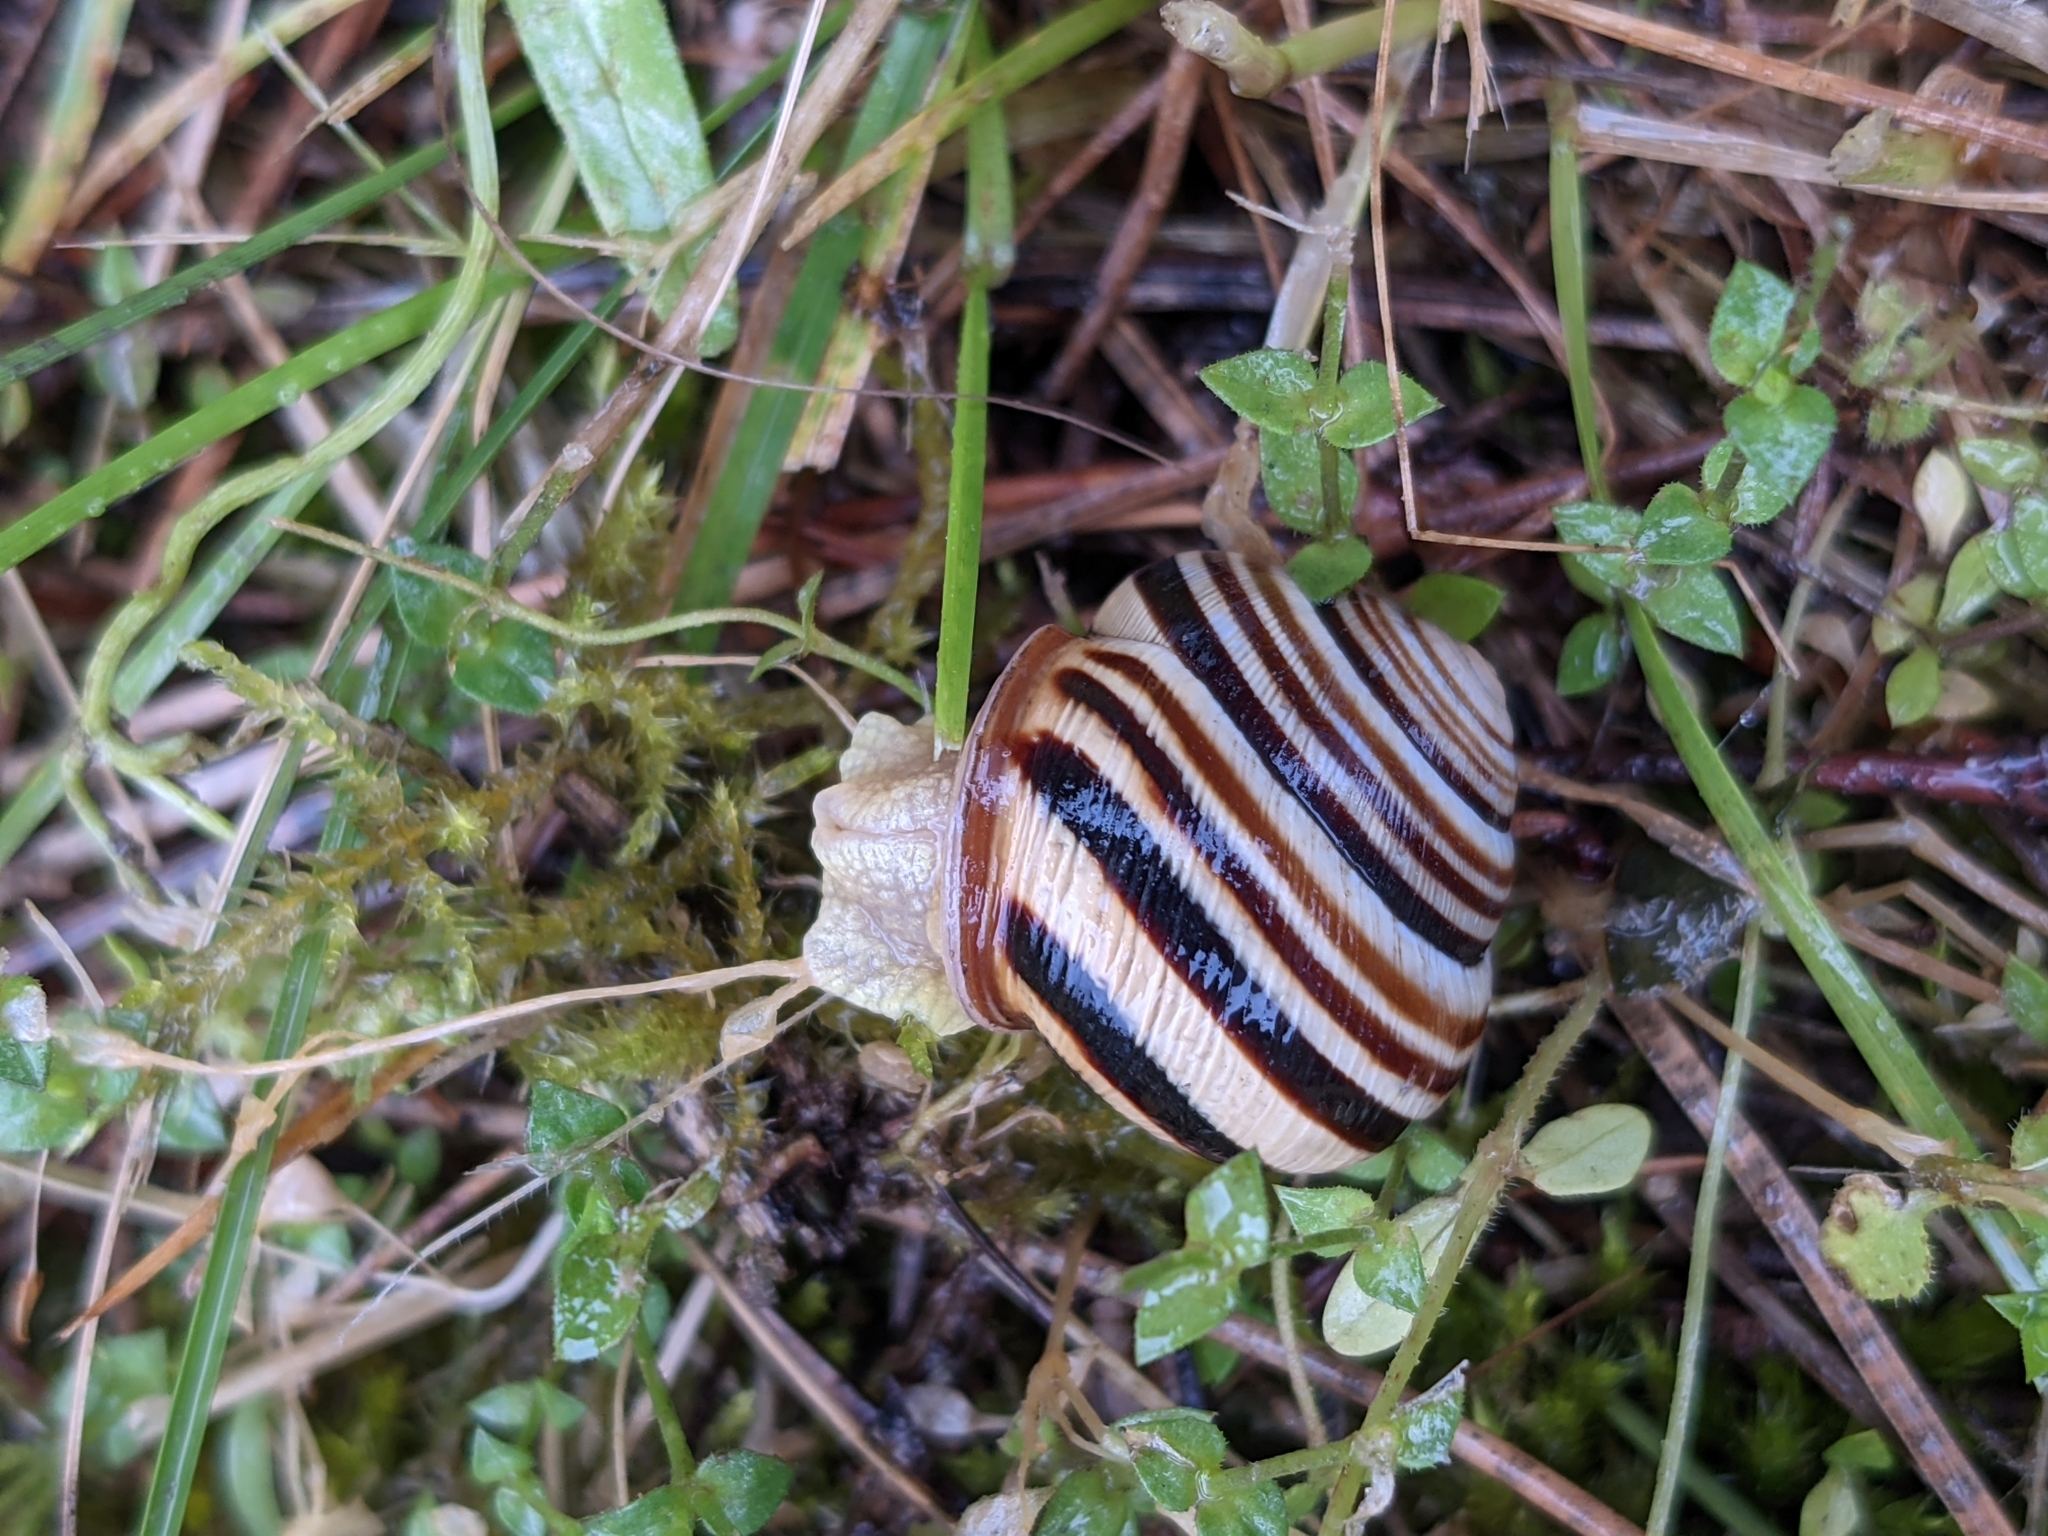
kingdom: Animalia
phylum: Mollusca
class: Gastropoda
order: Stylommatophora
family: Helicidae
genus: Caucasotachea
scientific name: Caucasotachea vindobonensis
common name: European helicid land snail
